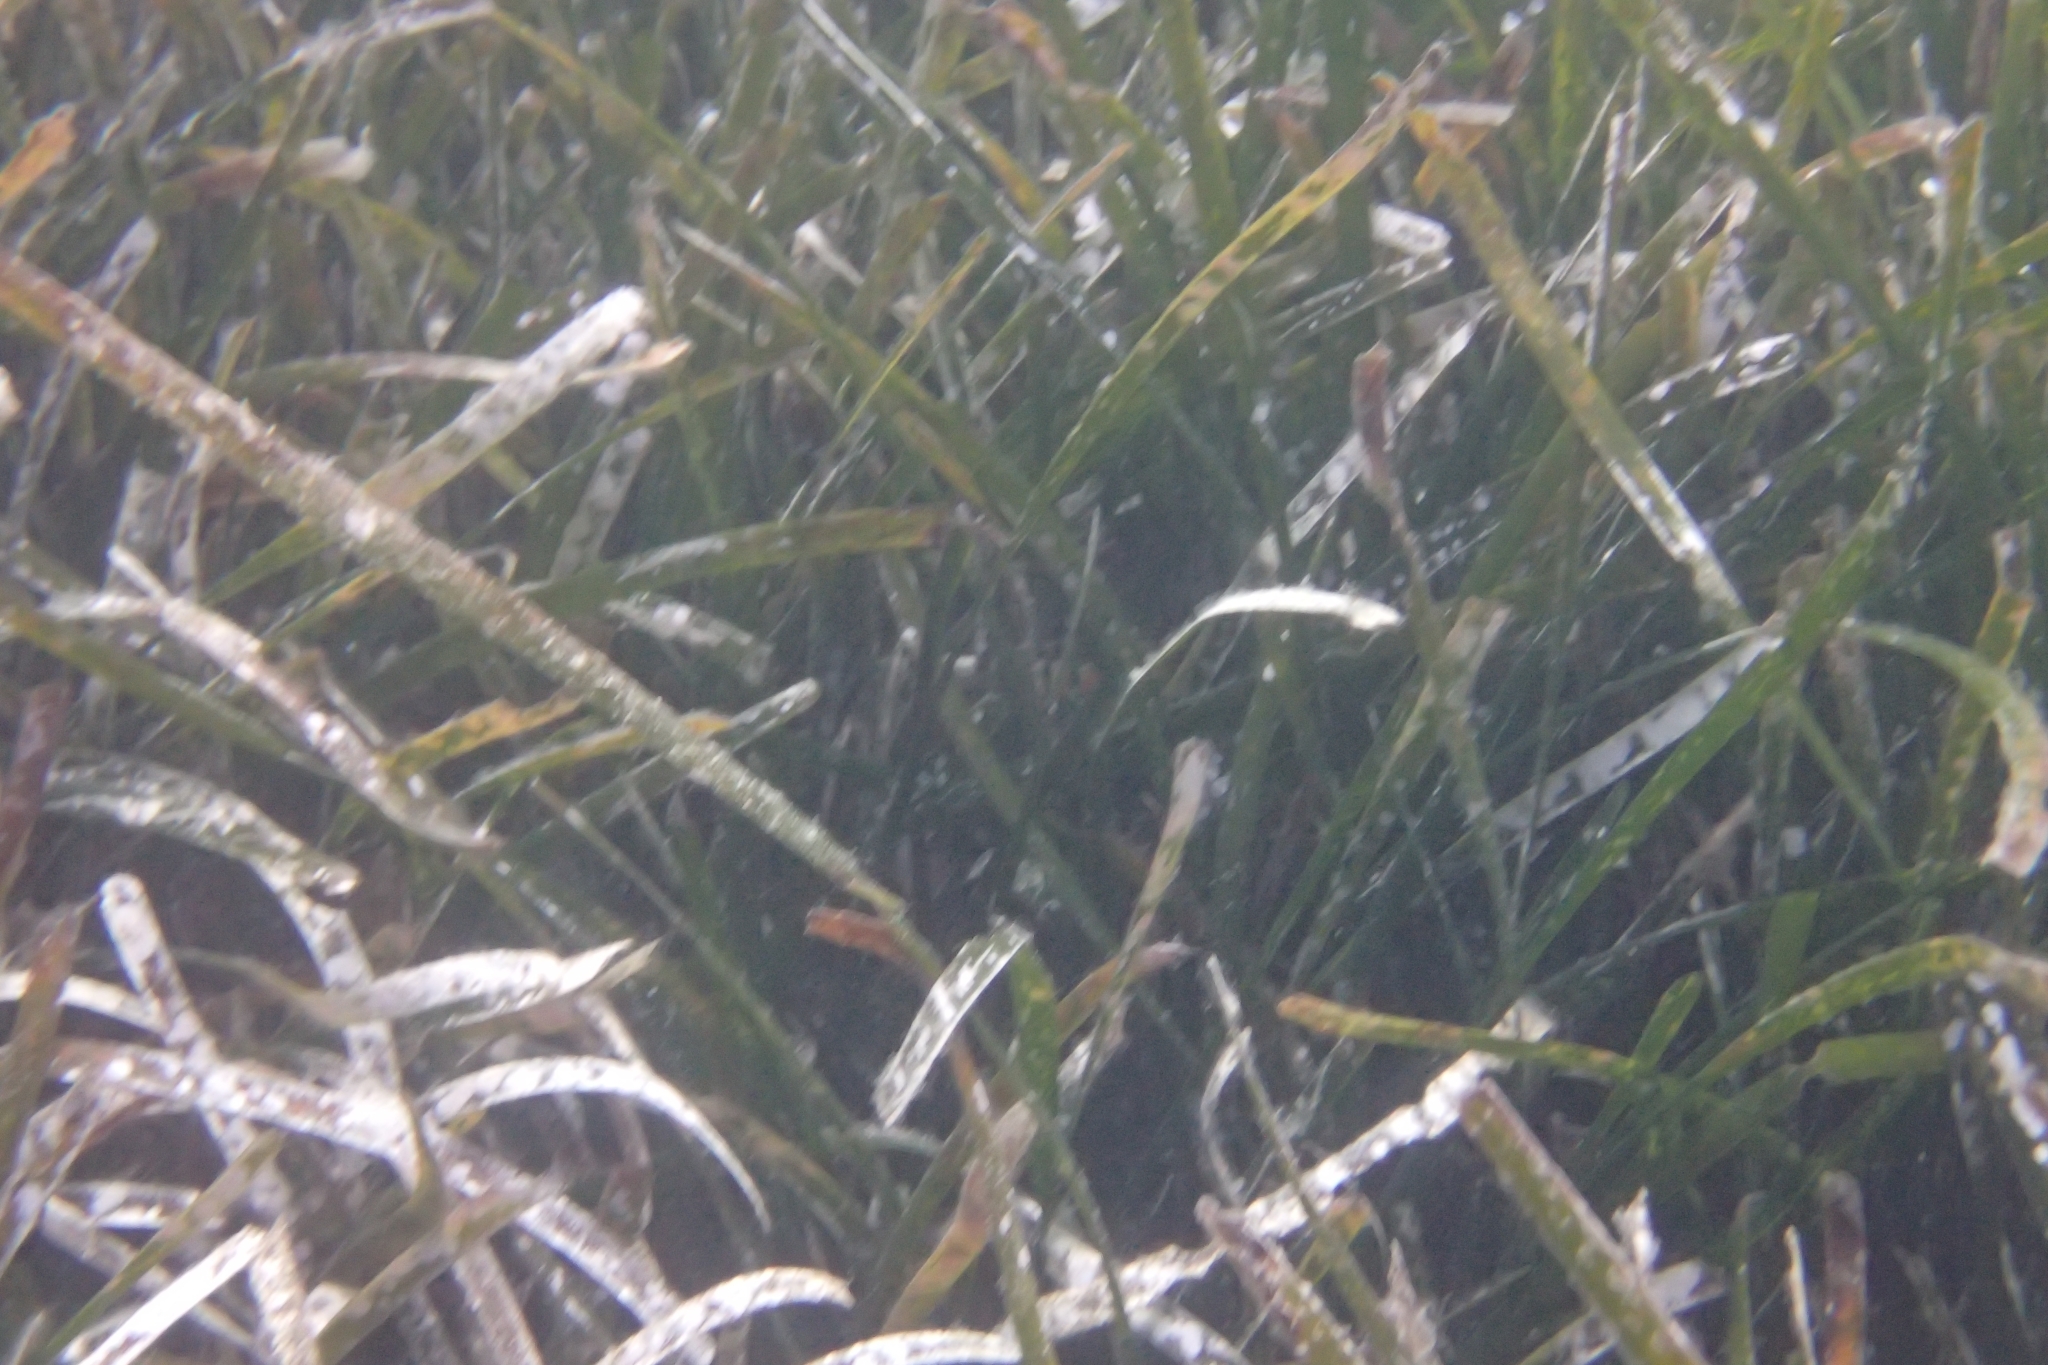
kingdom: Plantae
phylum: Tracheophyta
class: Liliopsida
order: Alismatales
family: Posidoniaceae
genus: Posidonia
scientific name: Posidonia oceanica
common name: Mediterranean tapeweed
